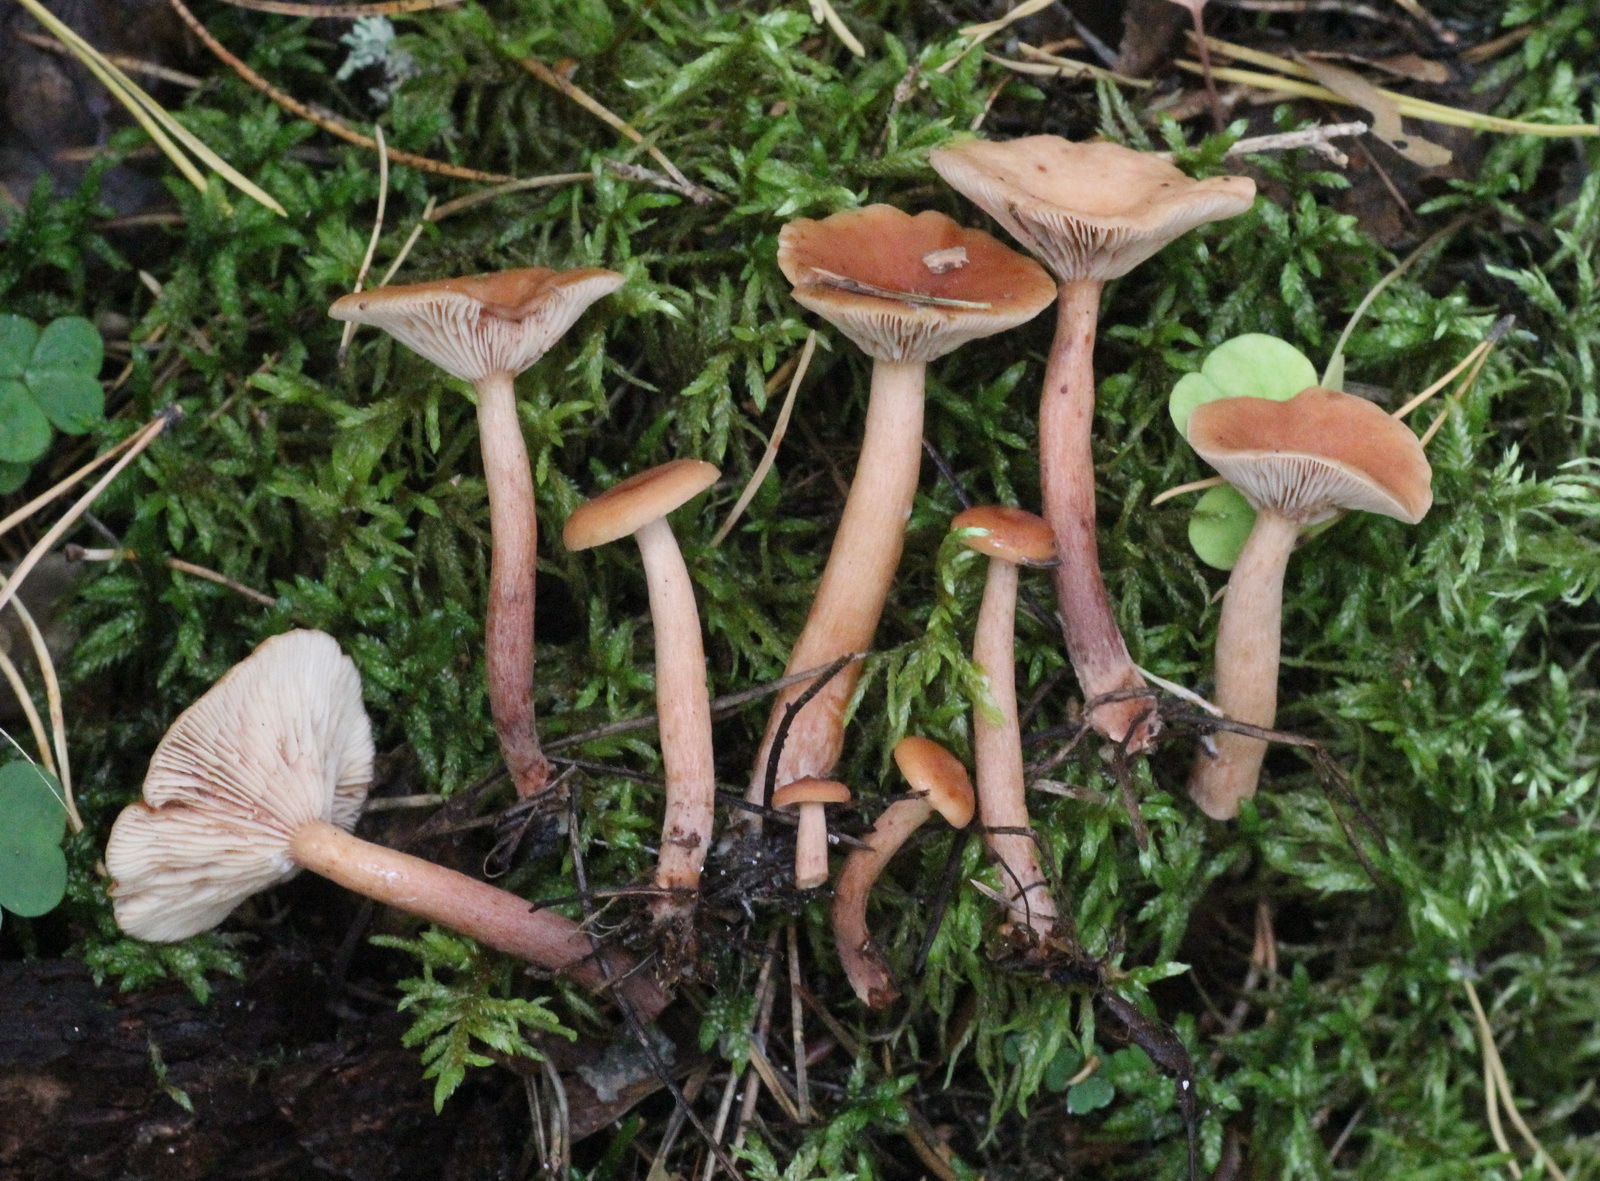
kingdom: Fungi
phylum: Basidiomycota
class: Agaricomycetes
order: Russulales
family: Russulaceae
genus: Lactarius
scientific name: Lactarius aurantiacus
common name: Orange milkcap
